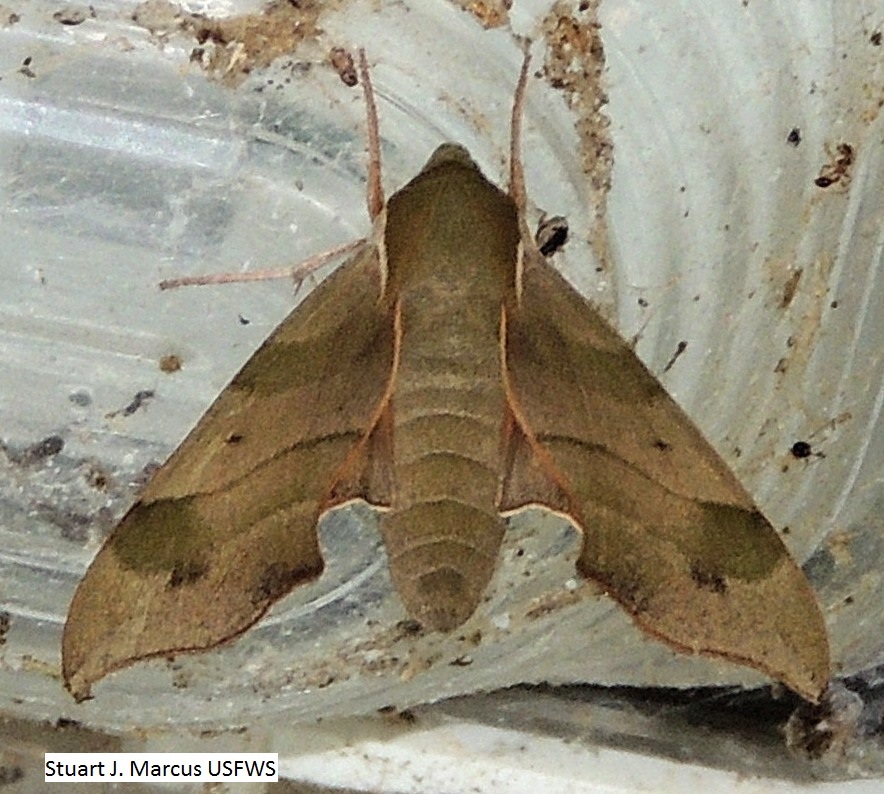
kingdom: Animalia
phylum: Arthropoda
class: Insecta
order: Lepidoptera
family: Sphingidae
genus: Darapsa
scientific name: Darapsa myron
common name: Hog sphinx
